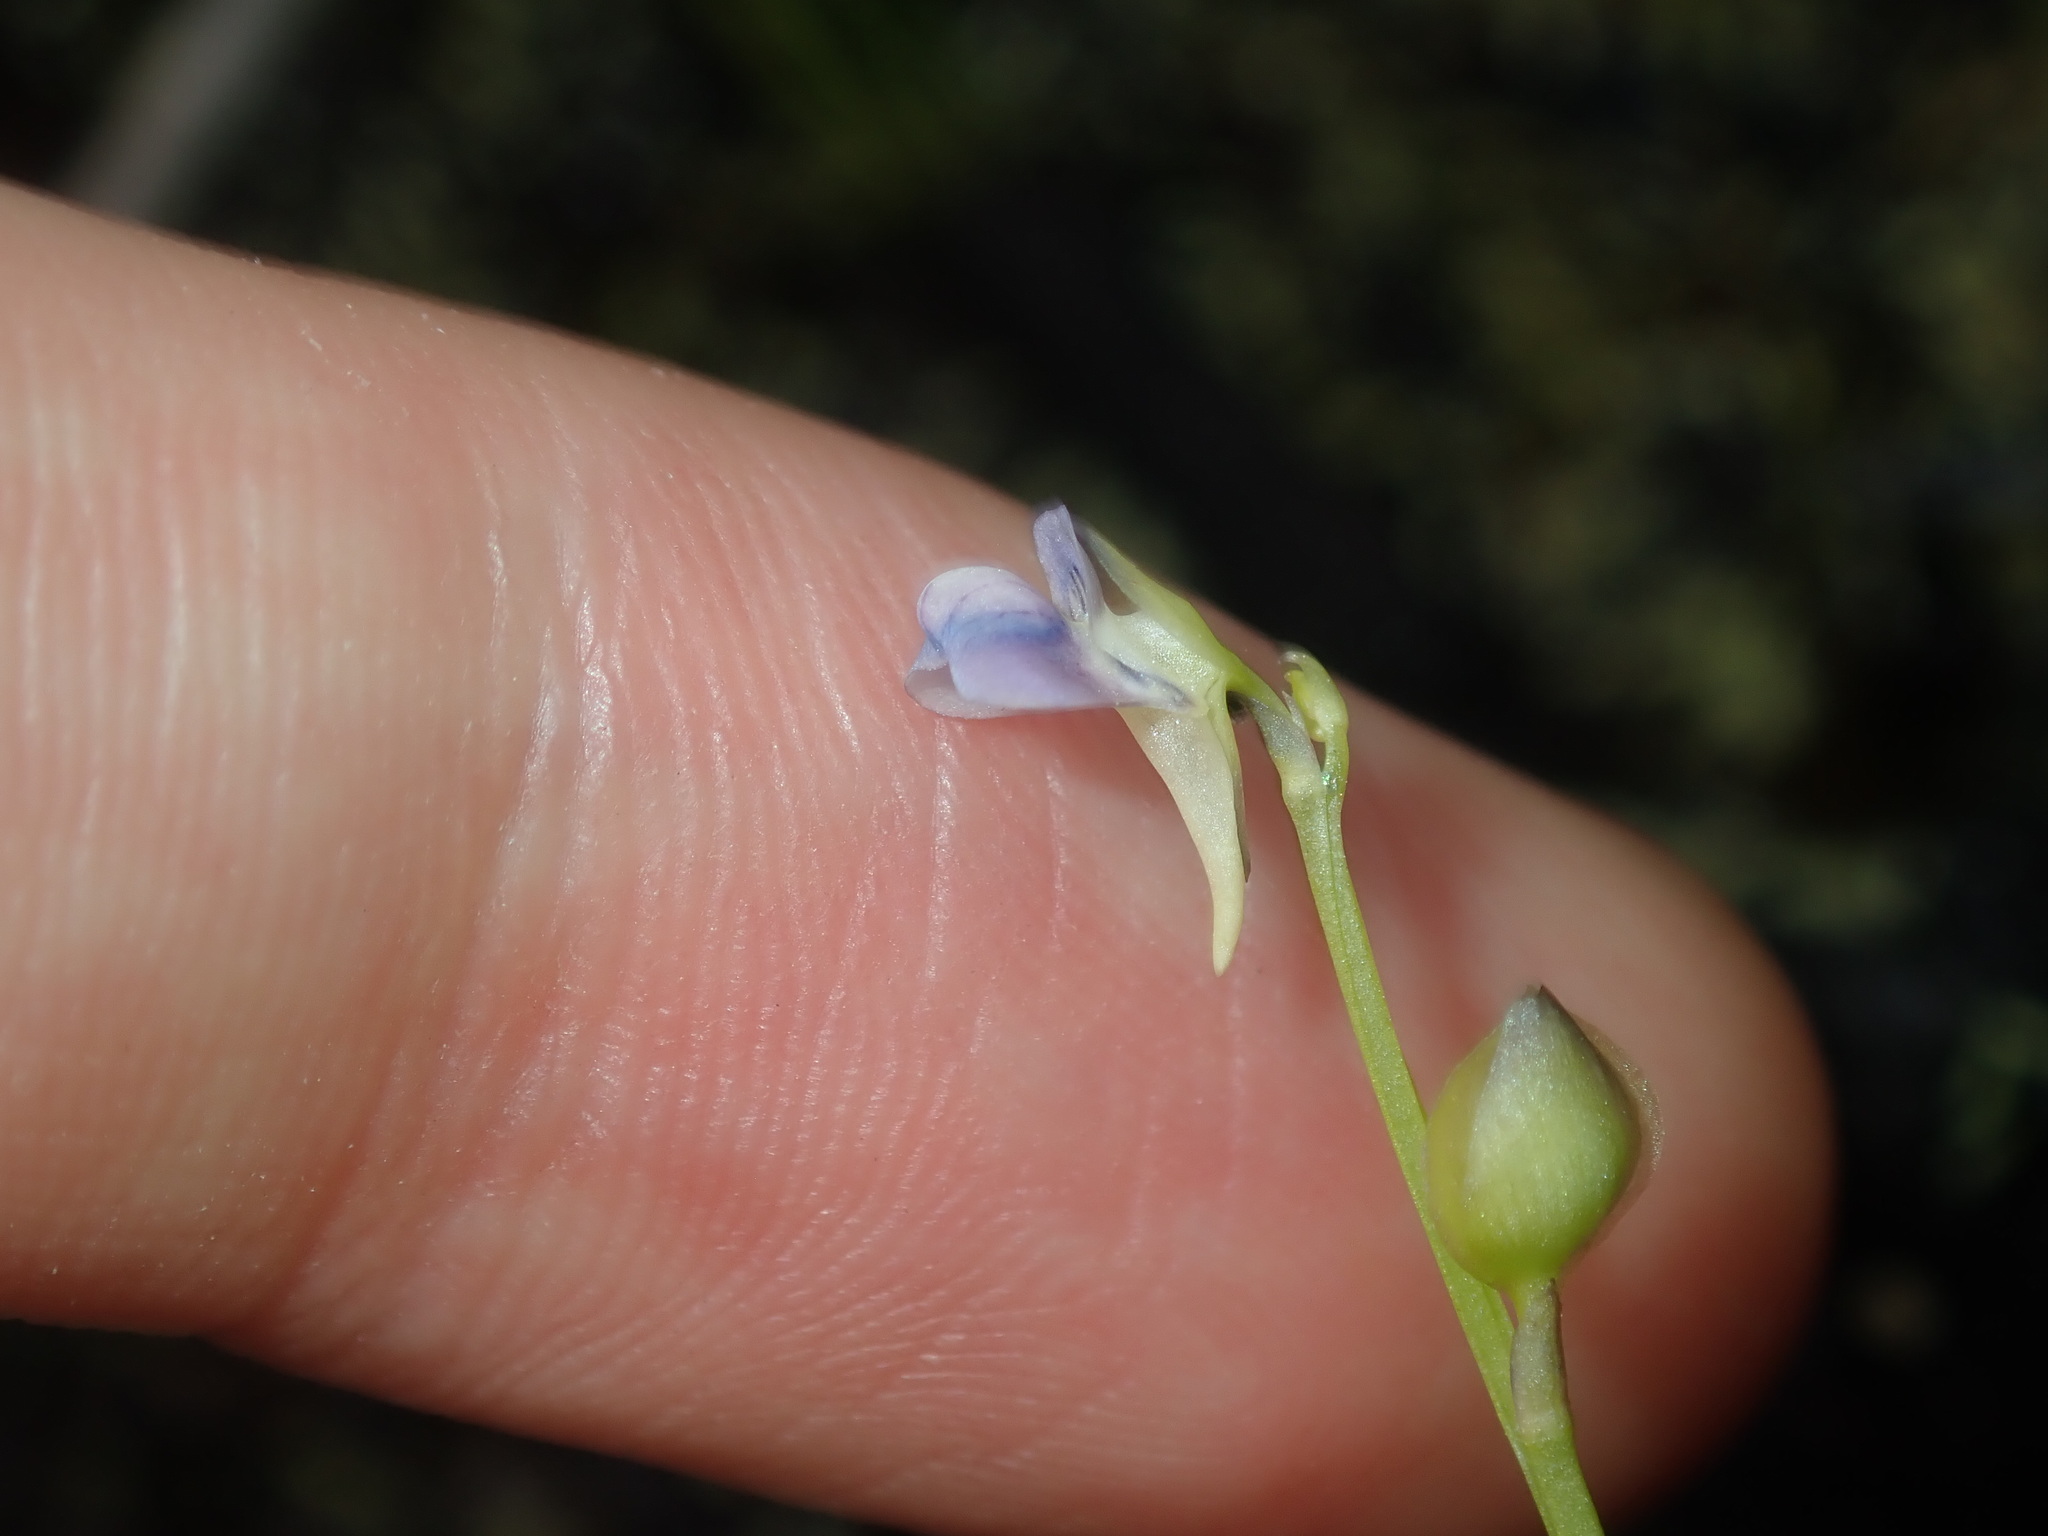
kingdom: Plantae
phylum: Tracheophyta
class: Magnoliopsida
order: Lamiales
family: Lentibulariaceae
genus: Utricularia
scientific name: Utricularia uliginosa
